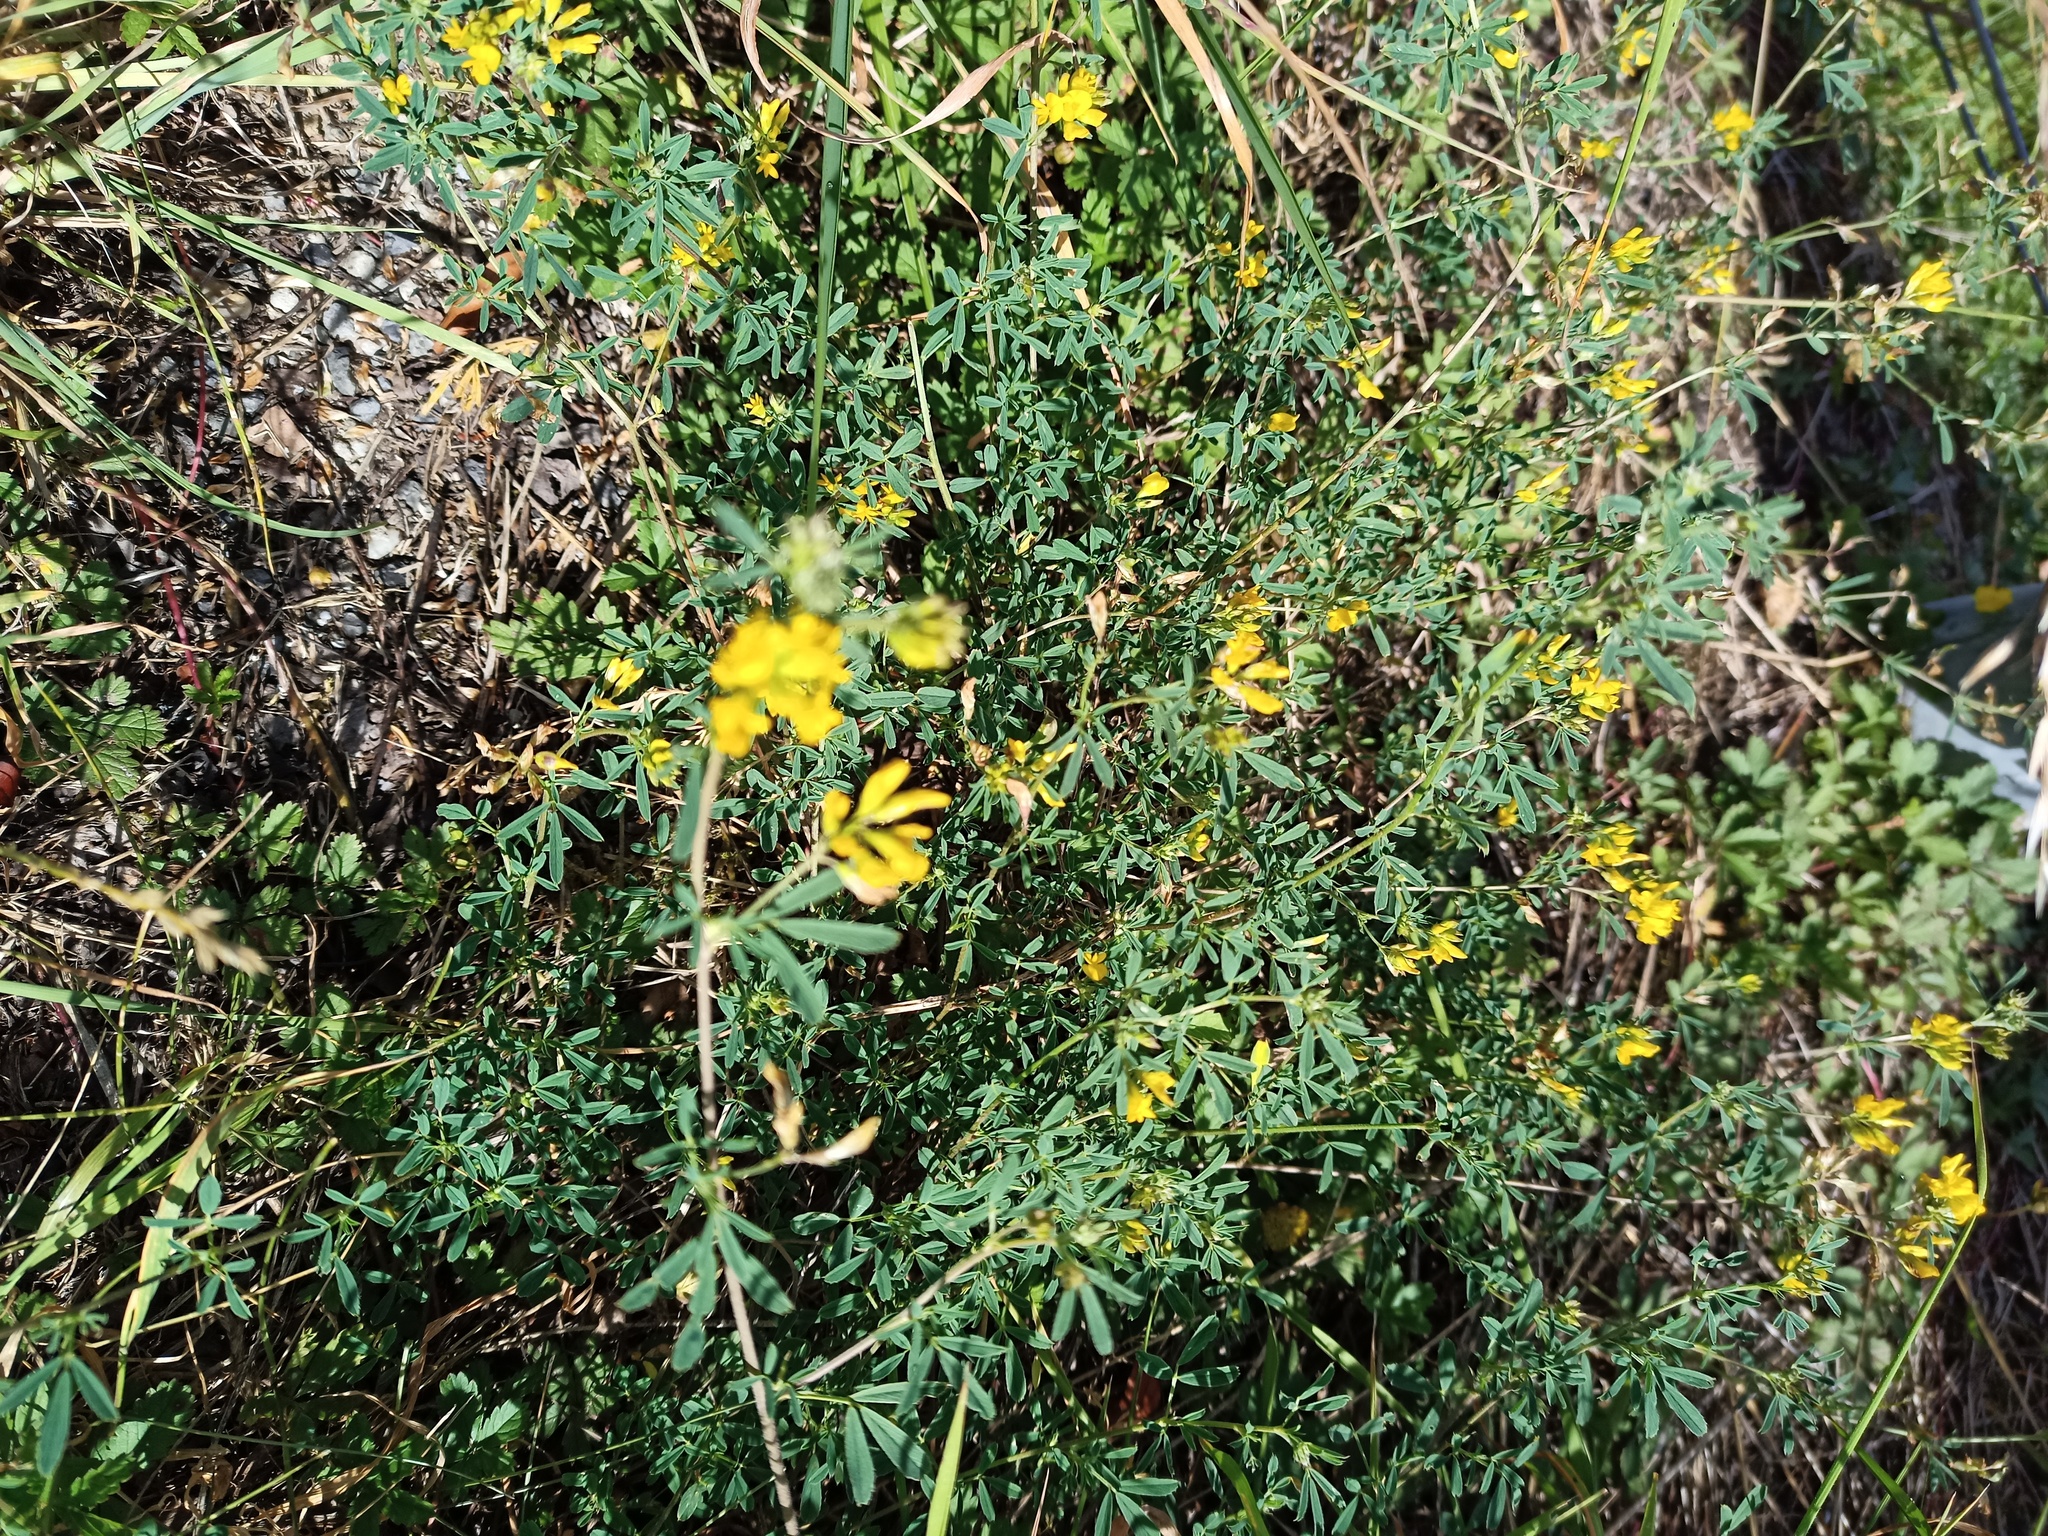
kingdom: Plantae
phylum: Tracheophyta
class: Magnoliopsida
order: Fabales
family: Fabaceae
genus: Medicago
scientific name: Medicago falcata
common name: Sickle medick
